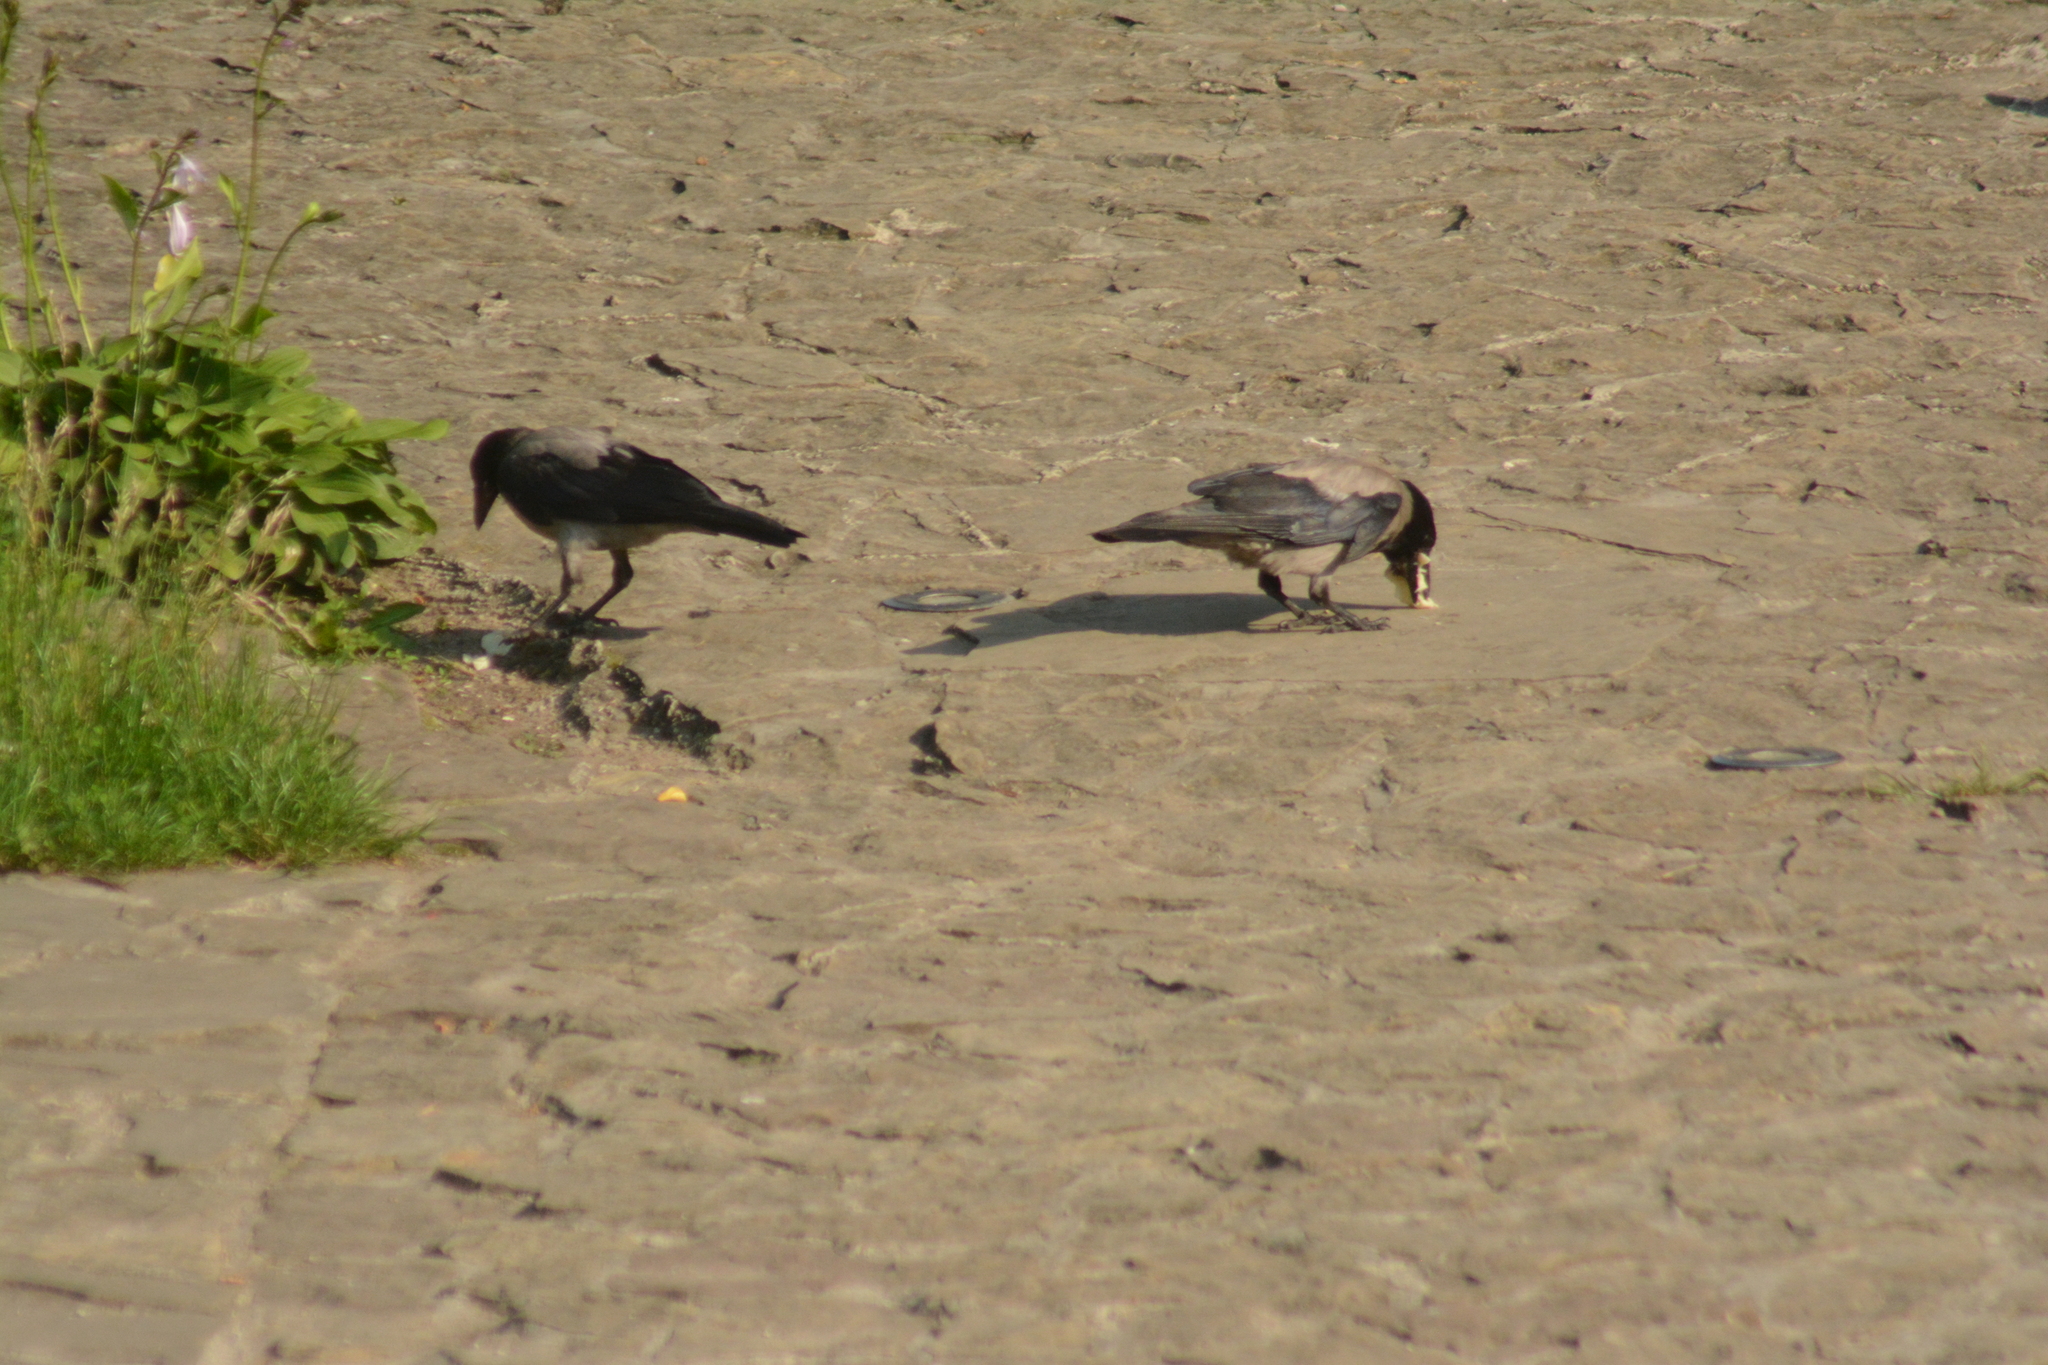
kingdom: Animalia
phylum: Chordata
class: Aves
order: Passeriformes
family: Corvidae
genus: Corvus
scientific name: Corvus cornix
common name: Hooded crow
